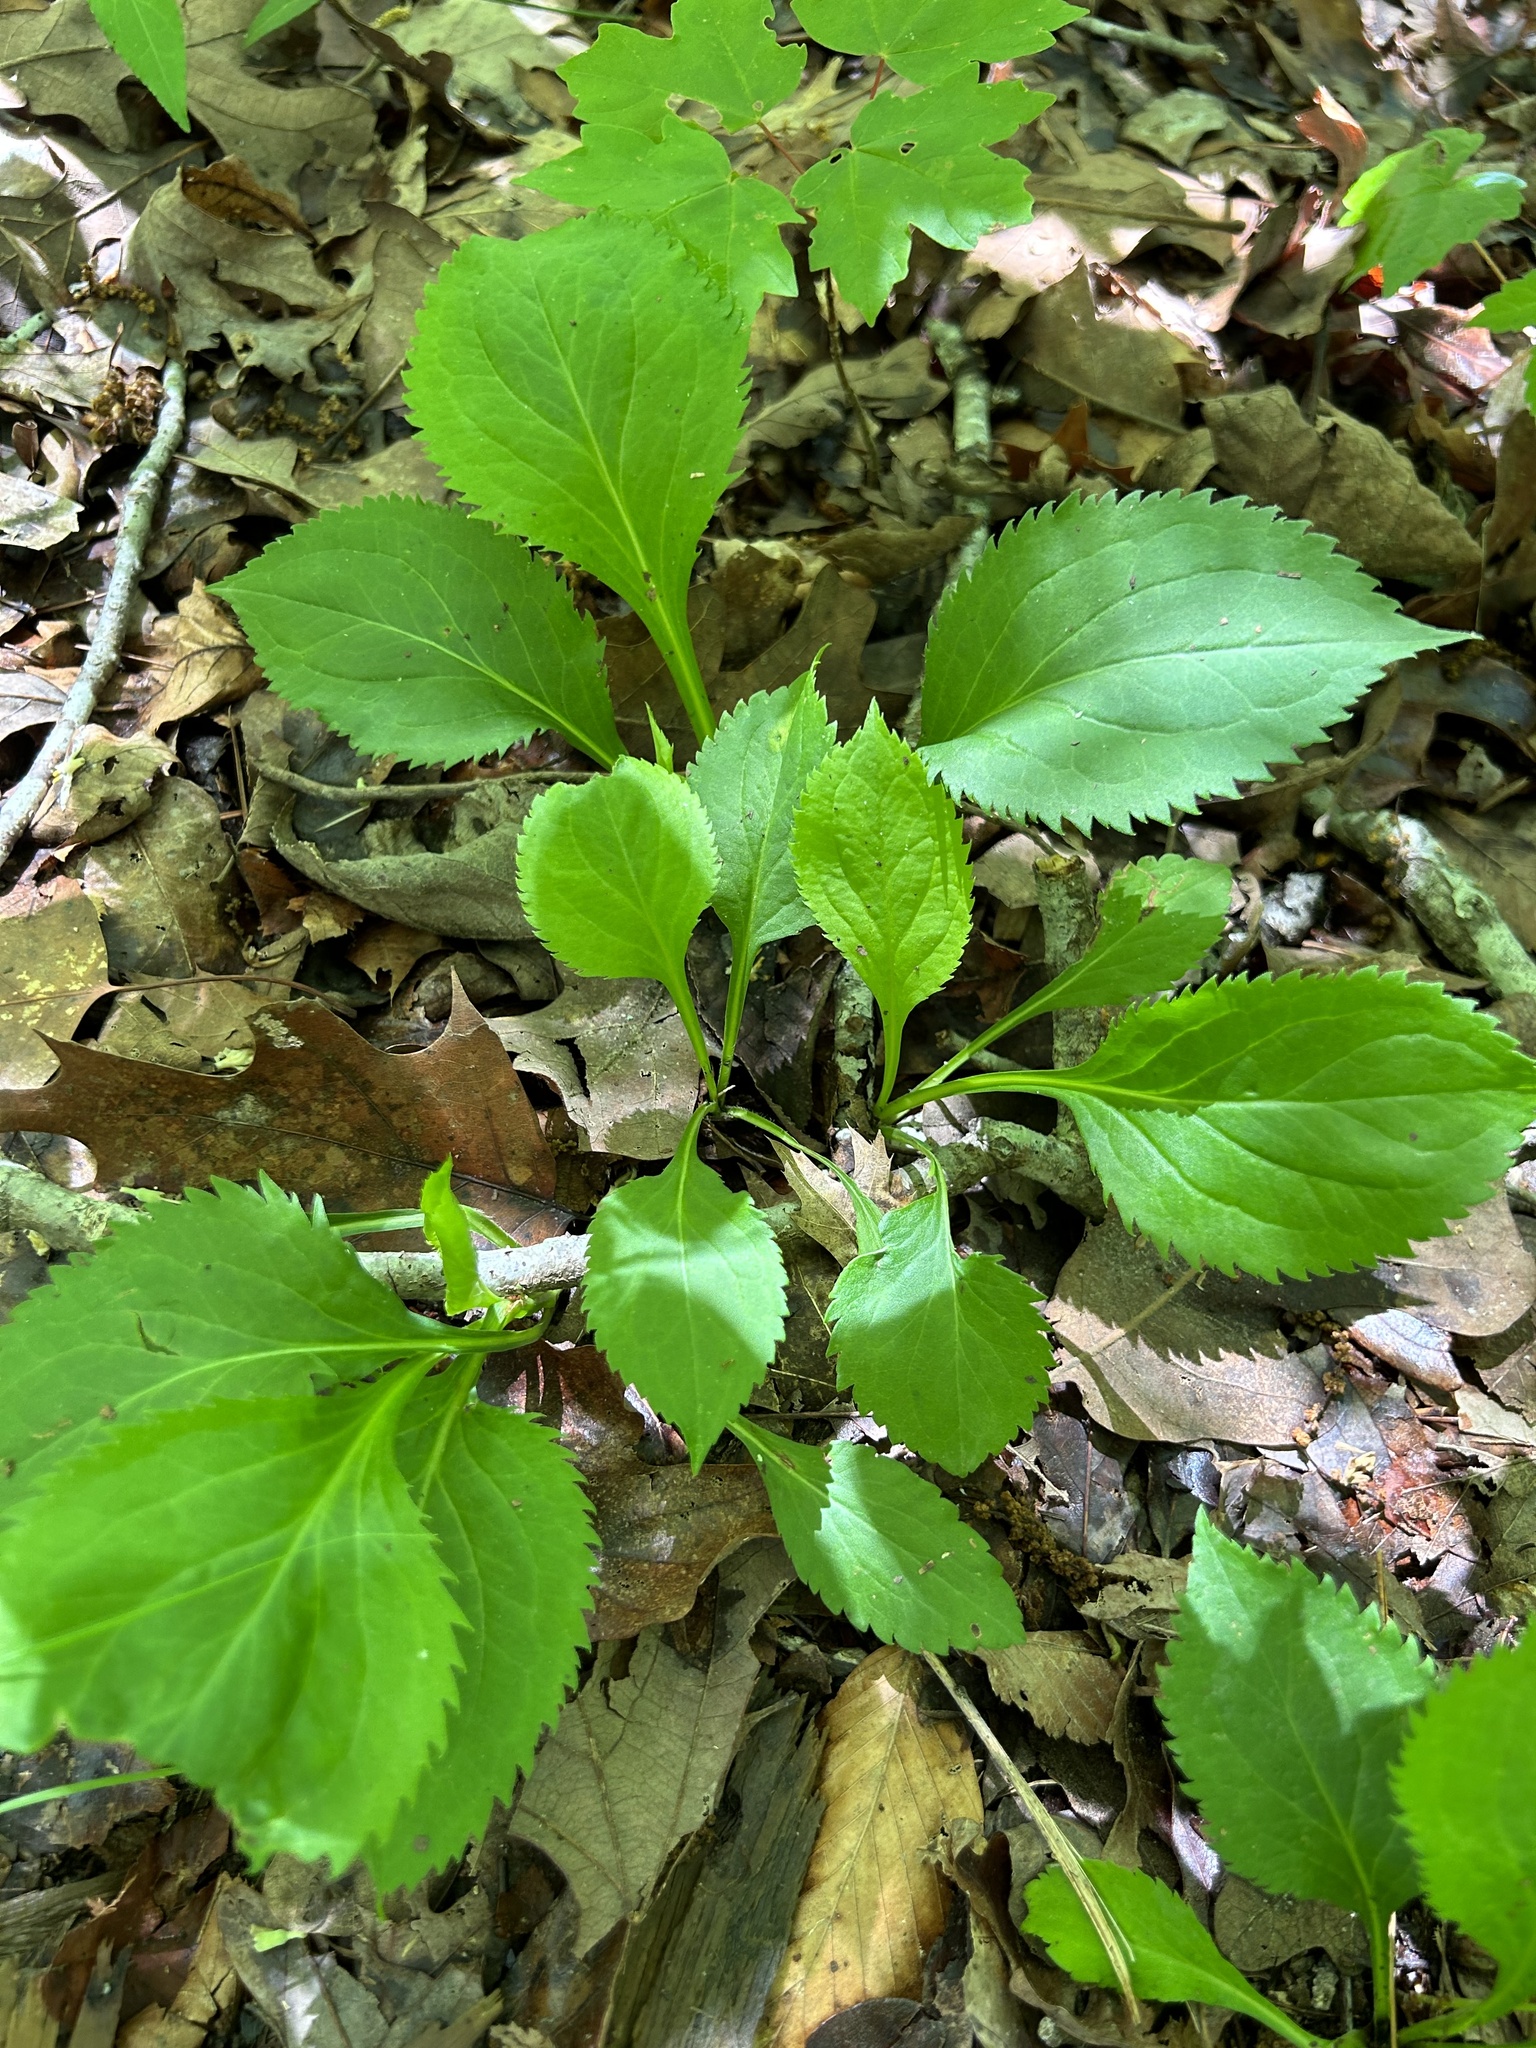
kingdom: Plantae
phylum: Tracheophyta
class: Magnoliopsida
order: Asterales
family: Asteraceae
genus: Solidago
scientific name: Solidago flexicaulis
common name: Zig-zag goldenrod
